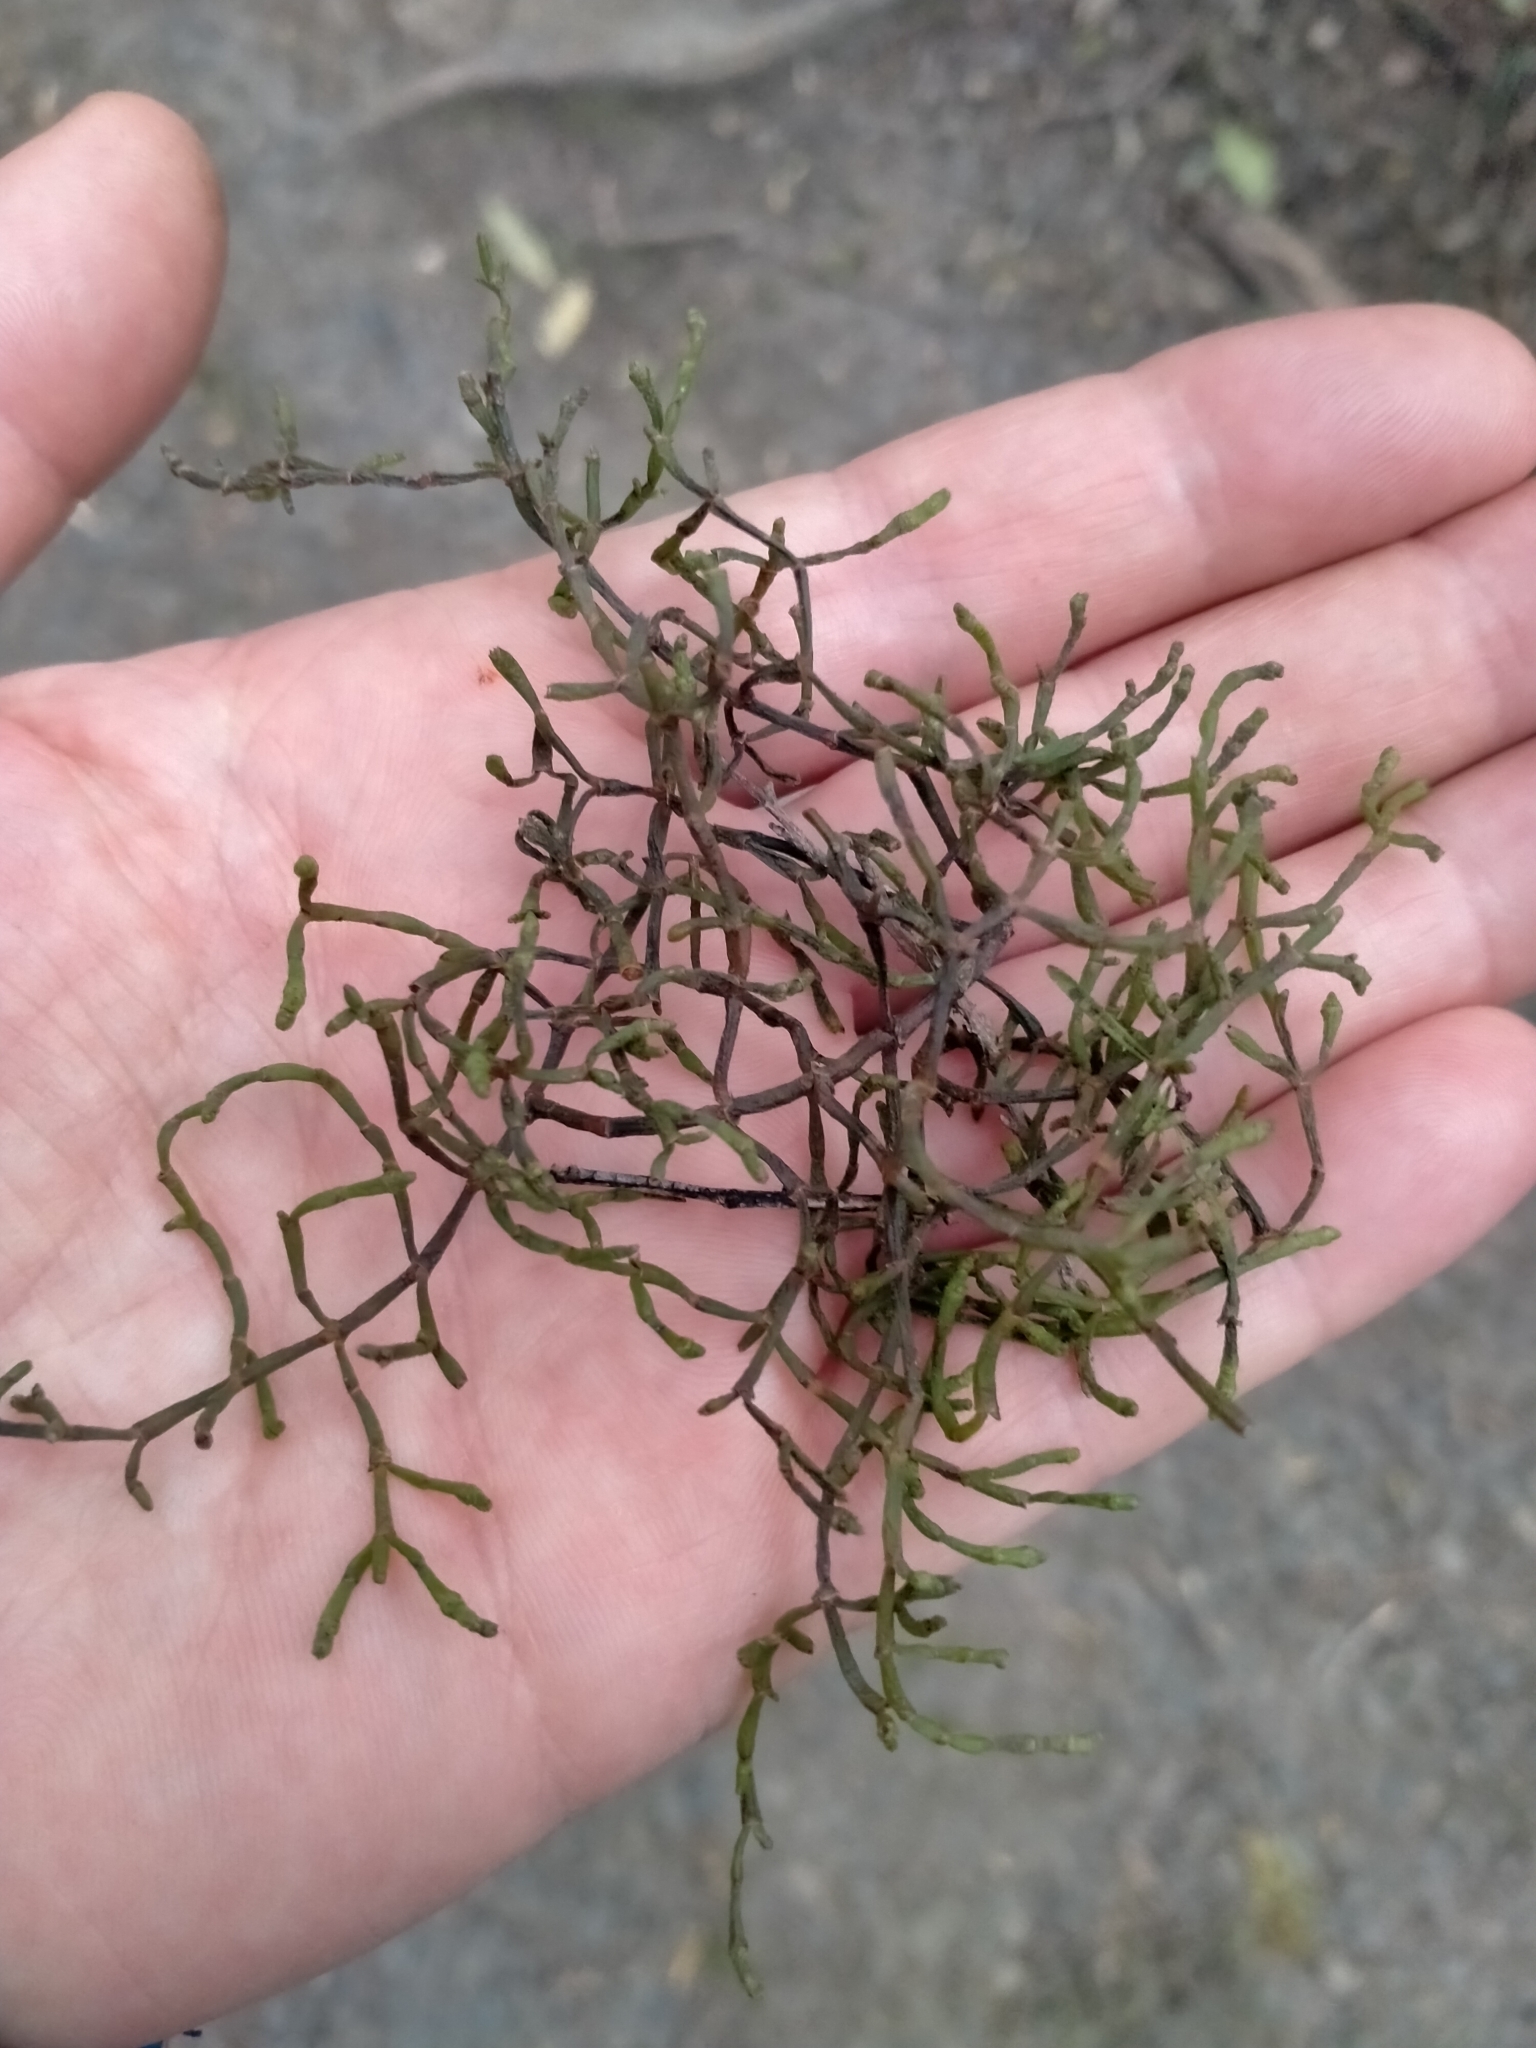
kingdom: Plantae
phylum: Tracheophyta
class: Magnoliopsida
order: Santalales
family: Viscaceae
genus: Korthalsella
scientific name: Korthalsella salicornioides
